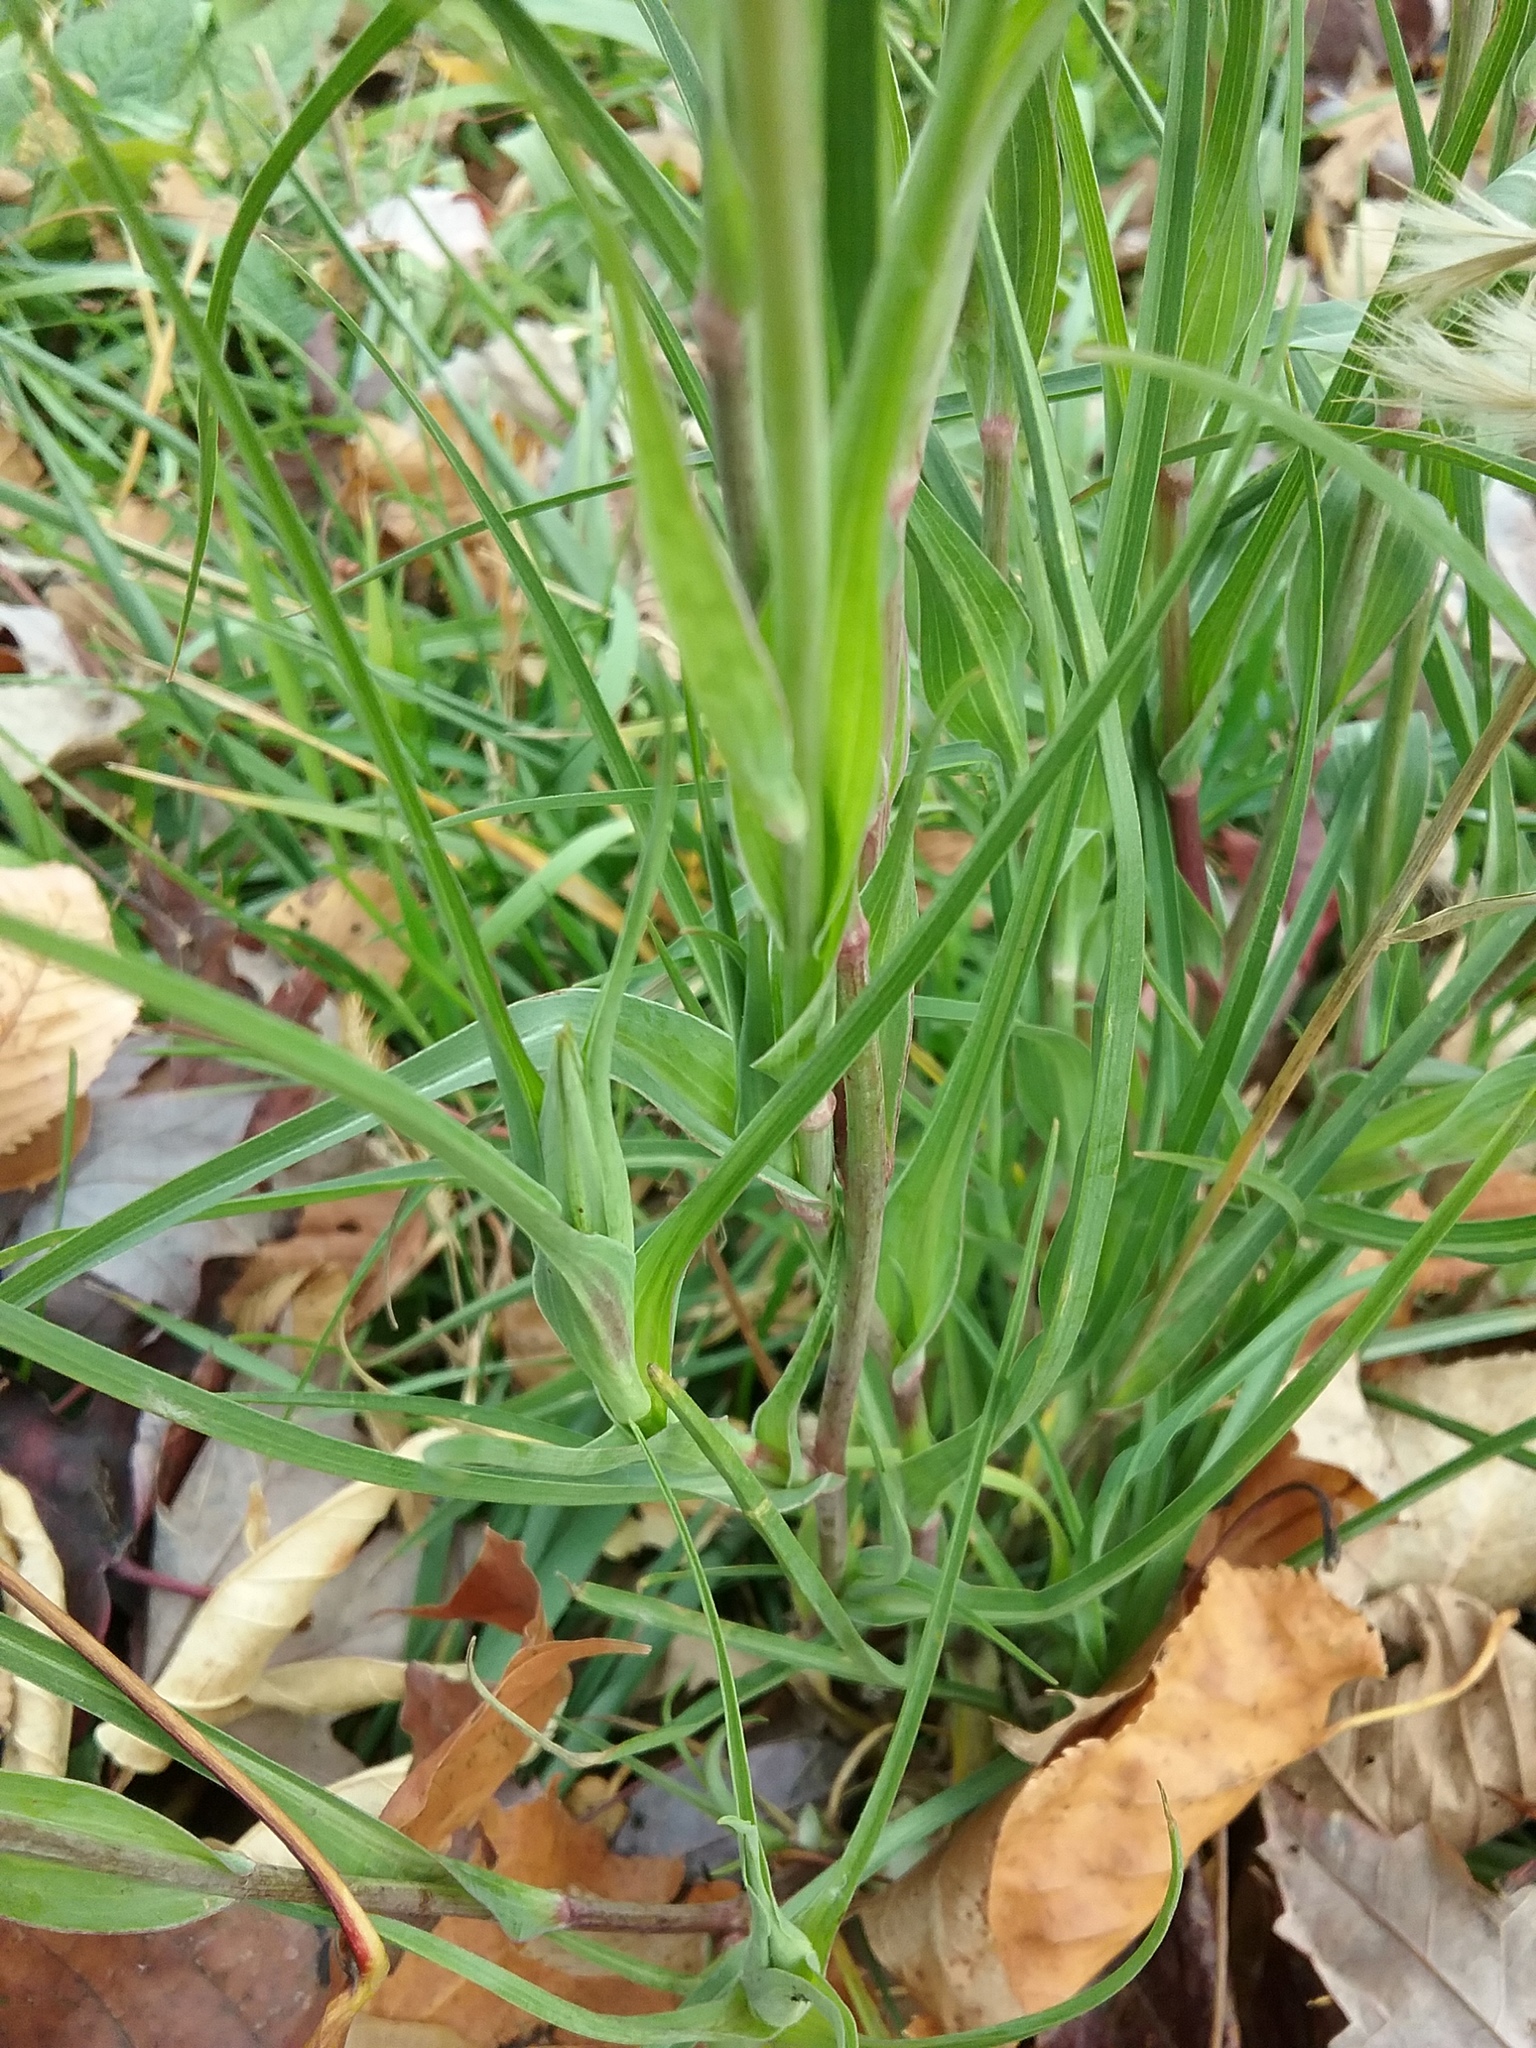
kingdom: Plantae
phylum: Tracheophyta
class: Magnoliopsida
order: Asterales
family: Asteraceae
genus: Tragopogon
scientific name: Tragopogon dubius
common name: Yellow salsify
